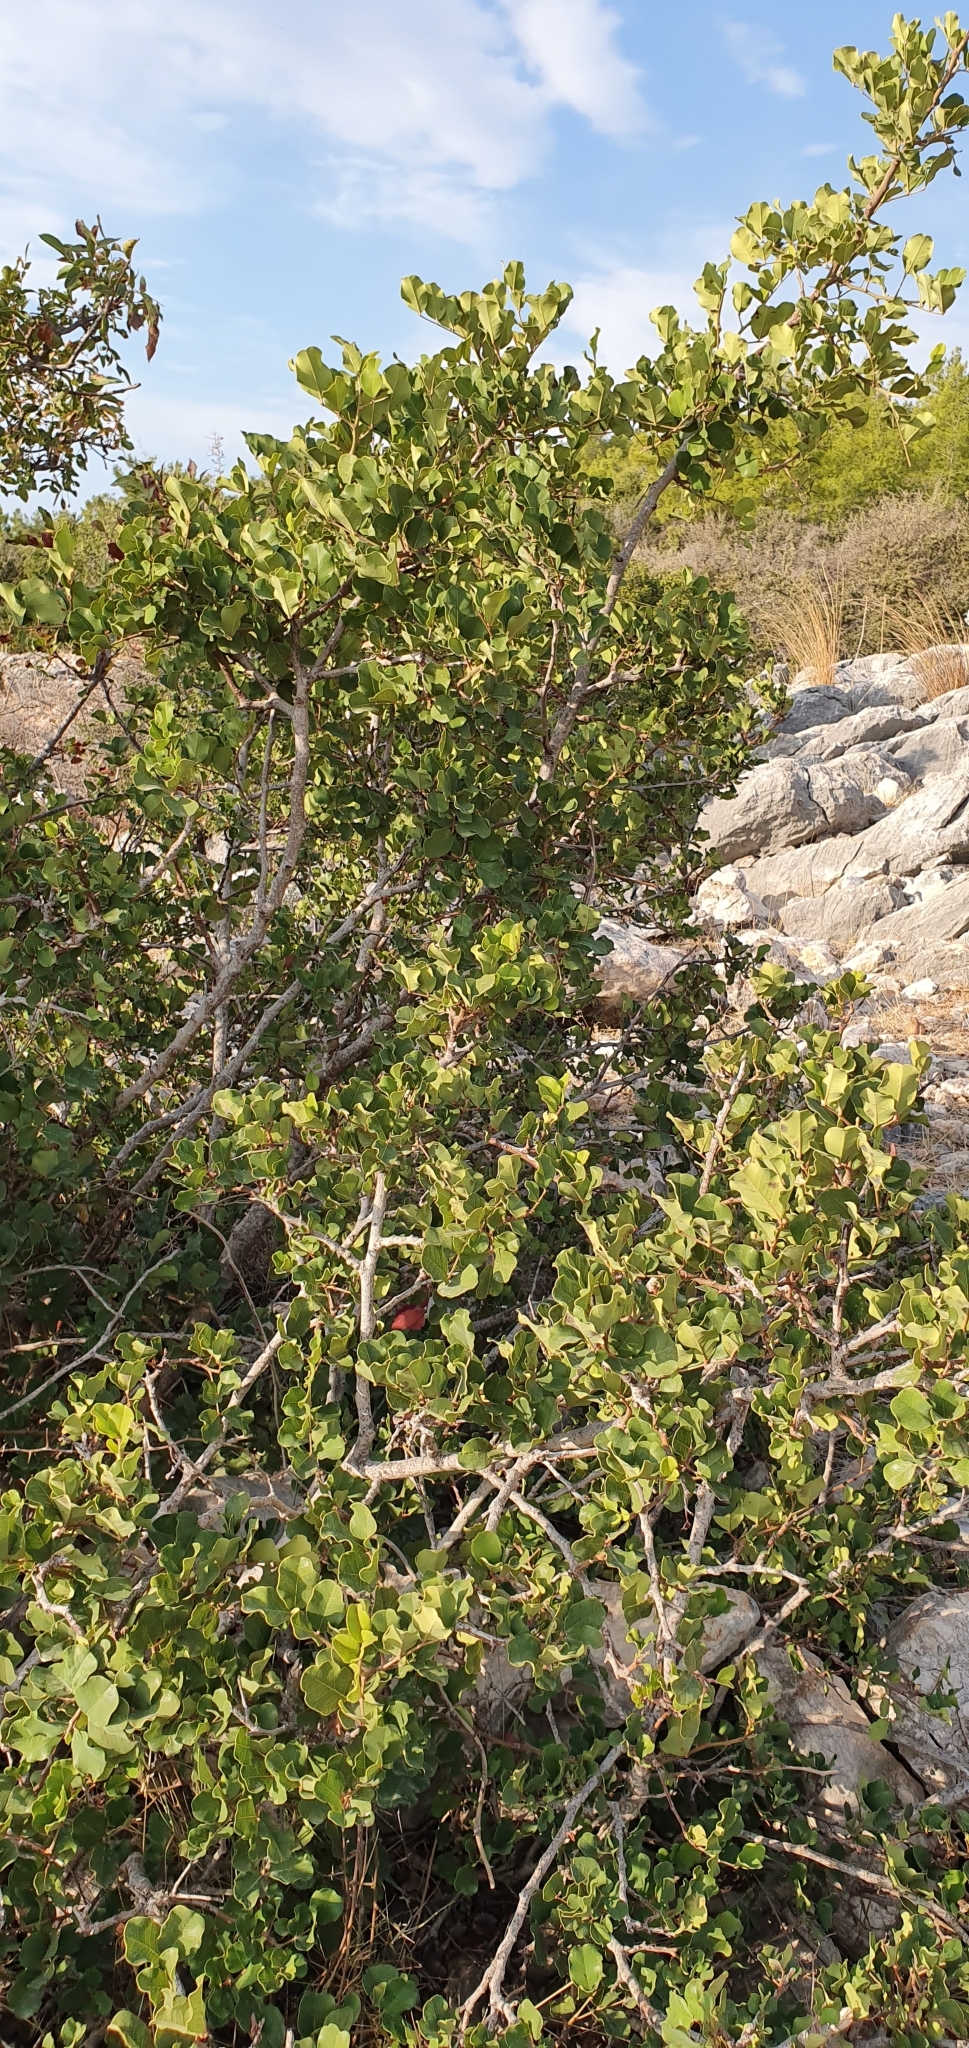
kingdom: Plantae
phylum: Tracheophyta
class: Magnoliopsida
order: Fabales
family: Fabaceae
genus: Ceratonia
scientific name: Ceratonia siliqua
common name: Carob
